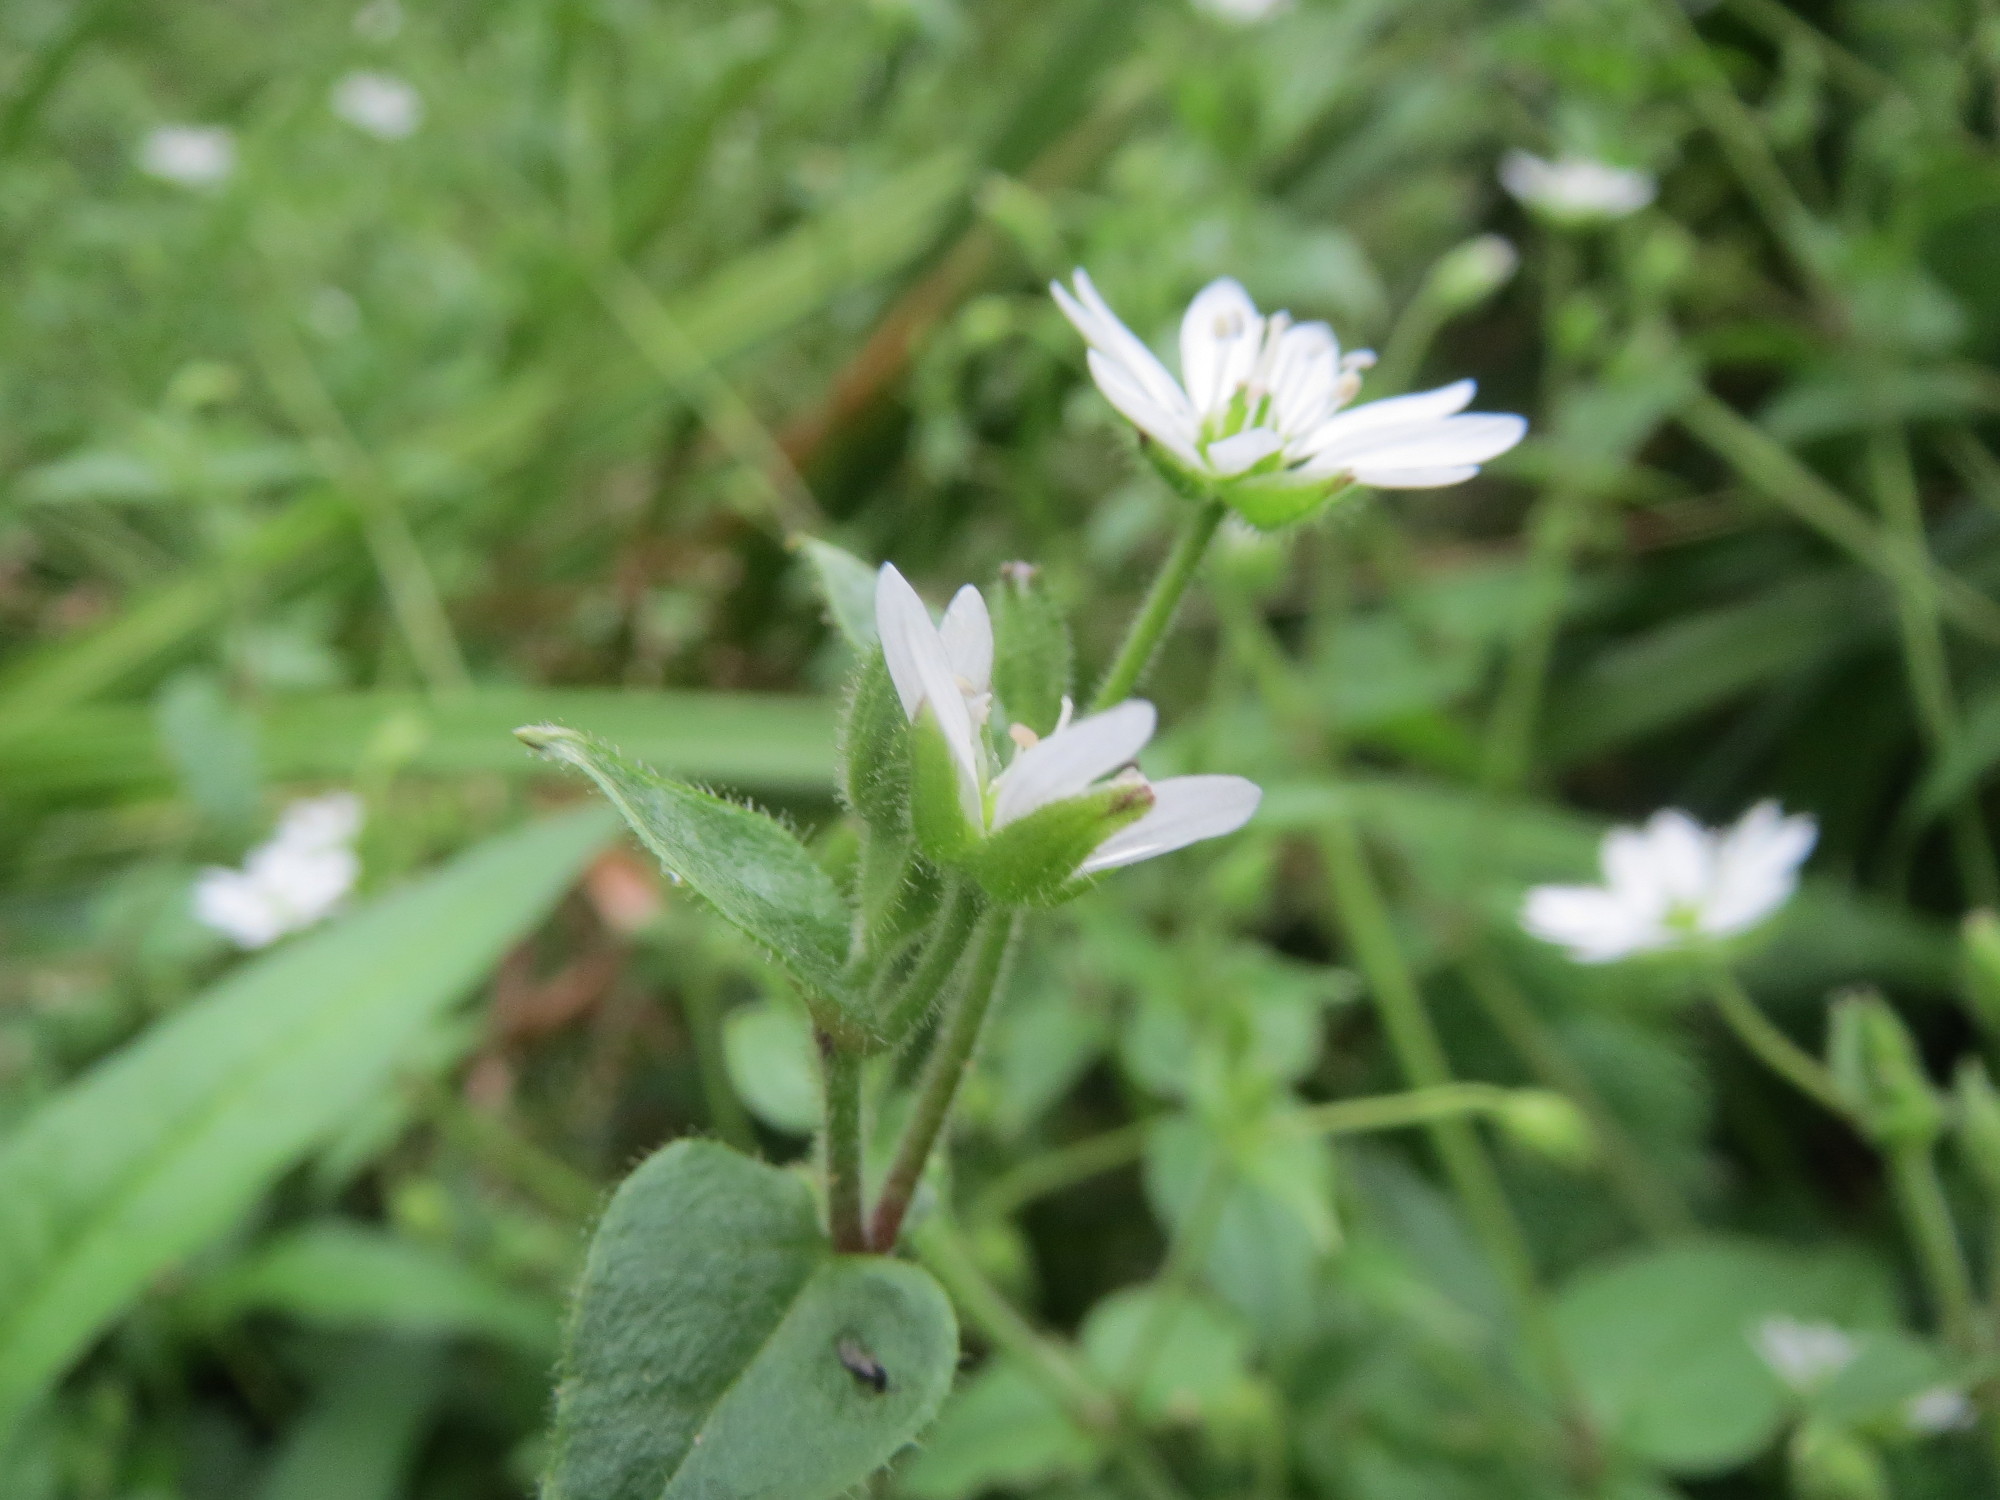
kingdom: Plantae
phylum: Tracheophyta
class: Magnoliopsida
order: Caryophyllales
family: Caryophyllaceae
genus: Stellaria
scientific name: Stellaria aquatica
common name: Water chickweed
